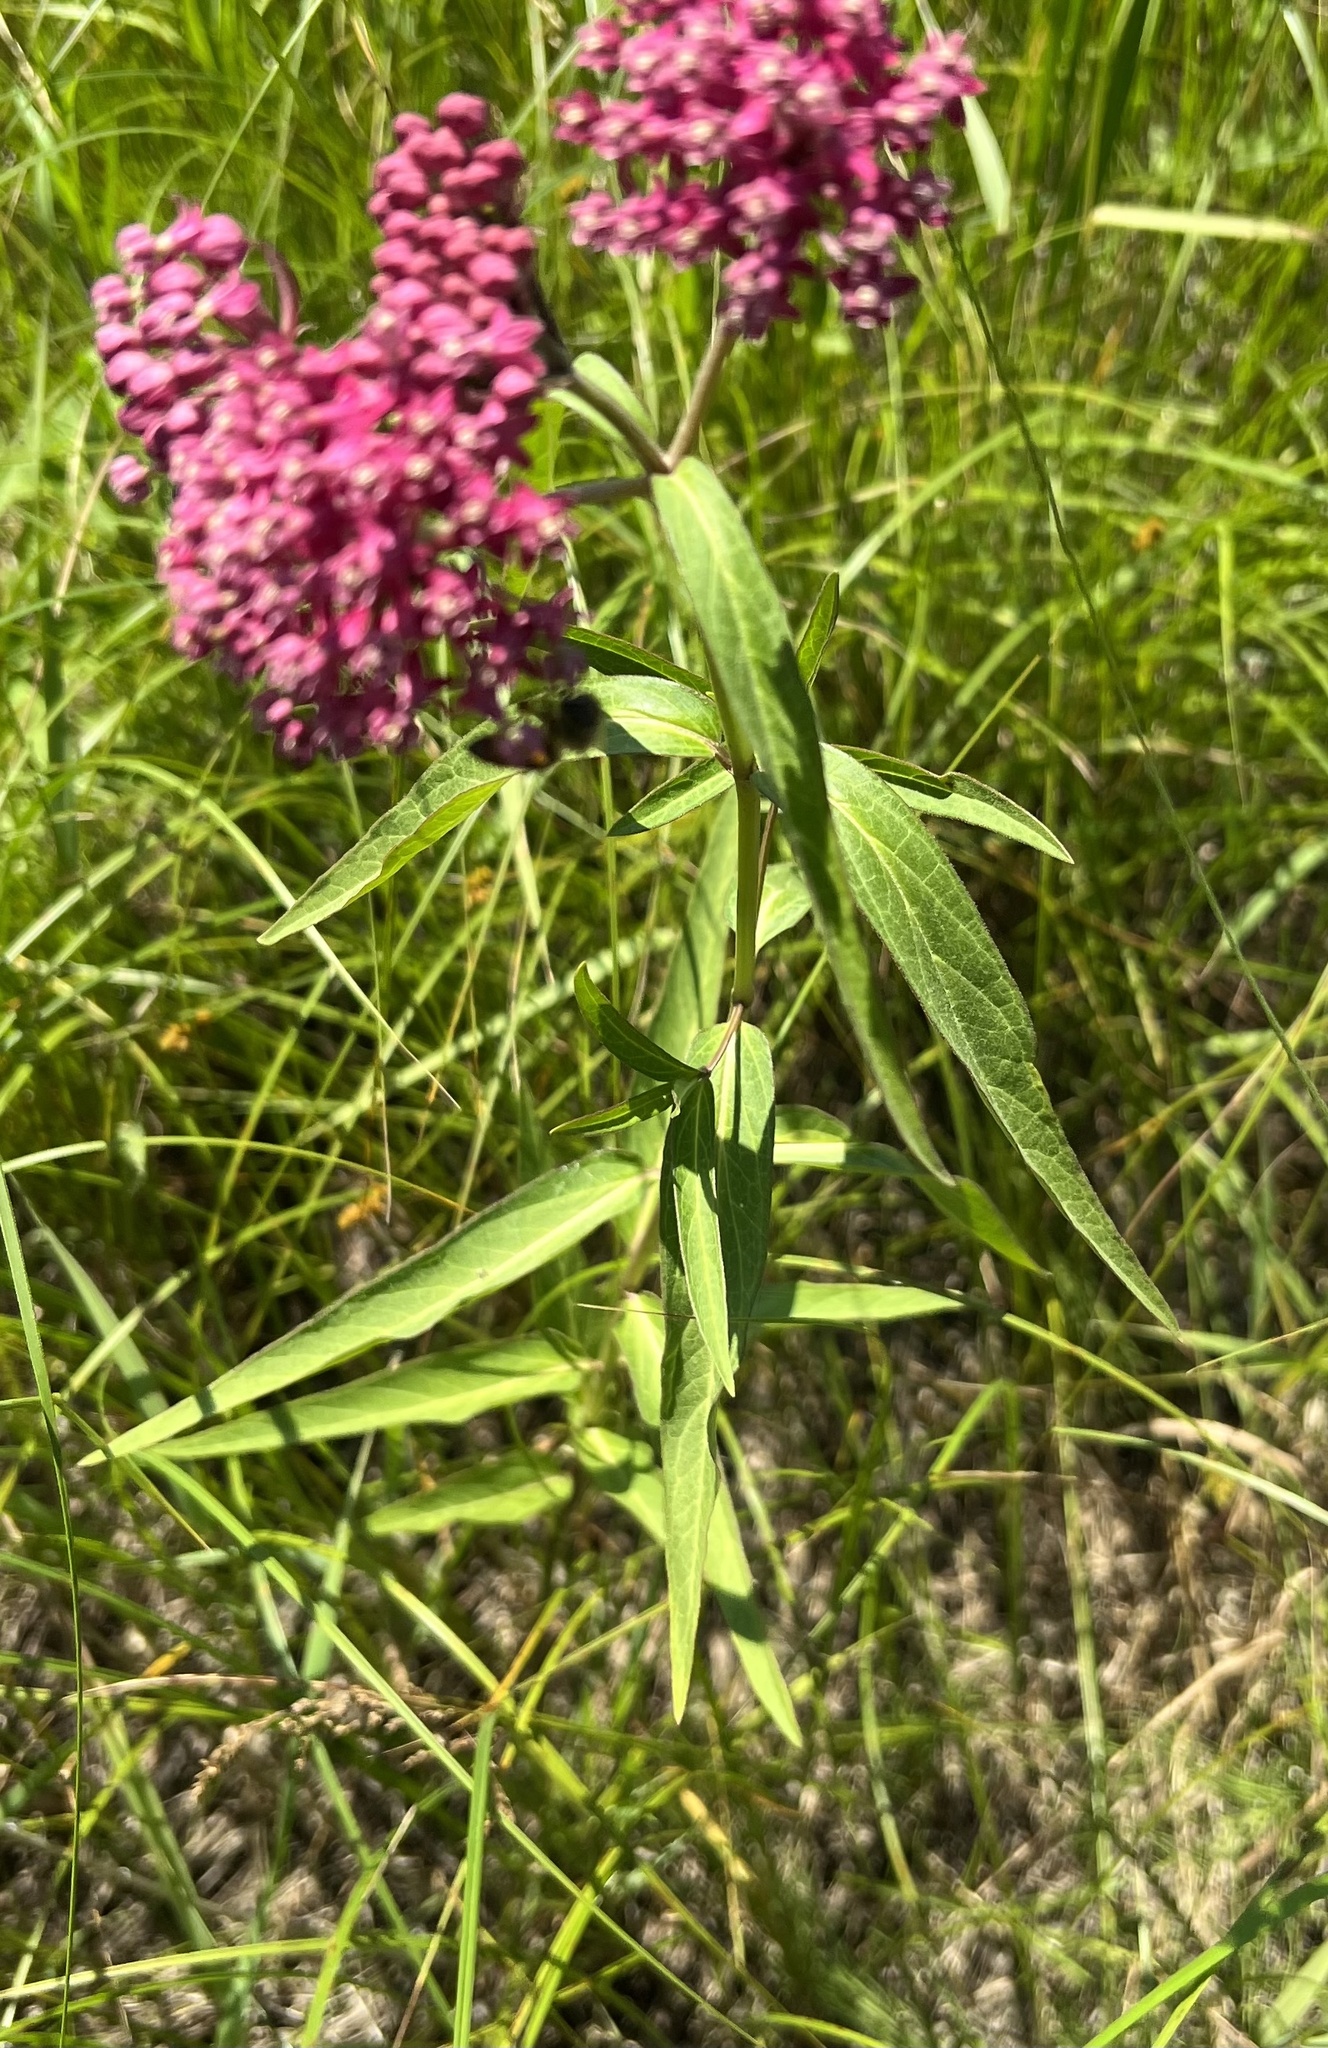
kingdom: Plantae
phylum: Tracheophyta
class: Magnoliopsida
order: Gentianales
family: Apocynaceae
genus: Asclepias
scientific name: Asclepias incarnata
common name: Swamp milkweed
